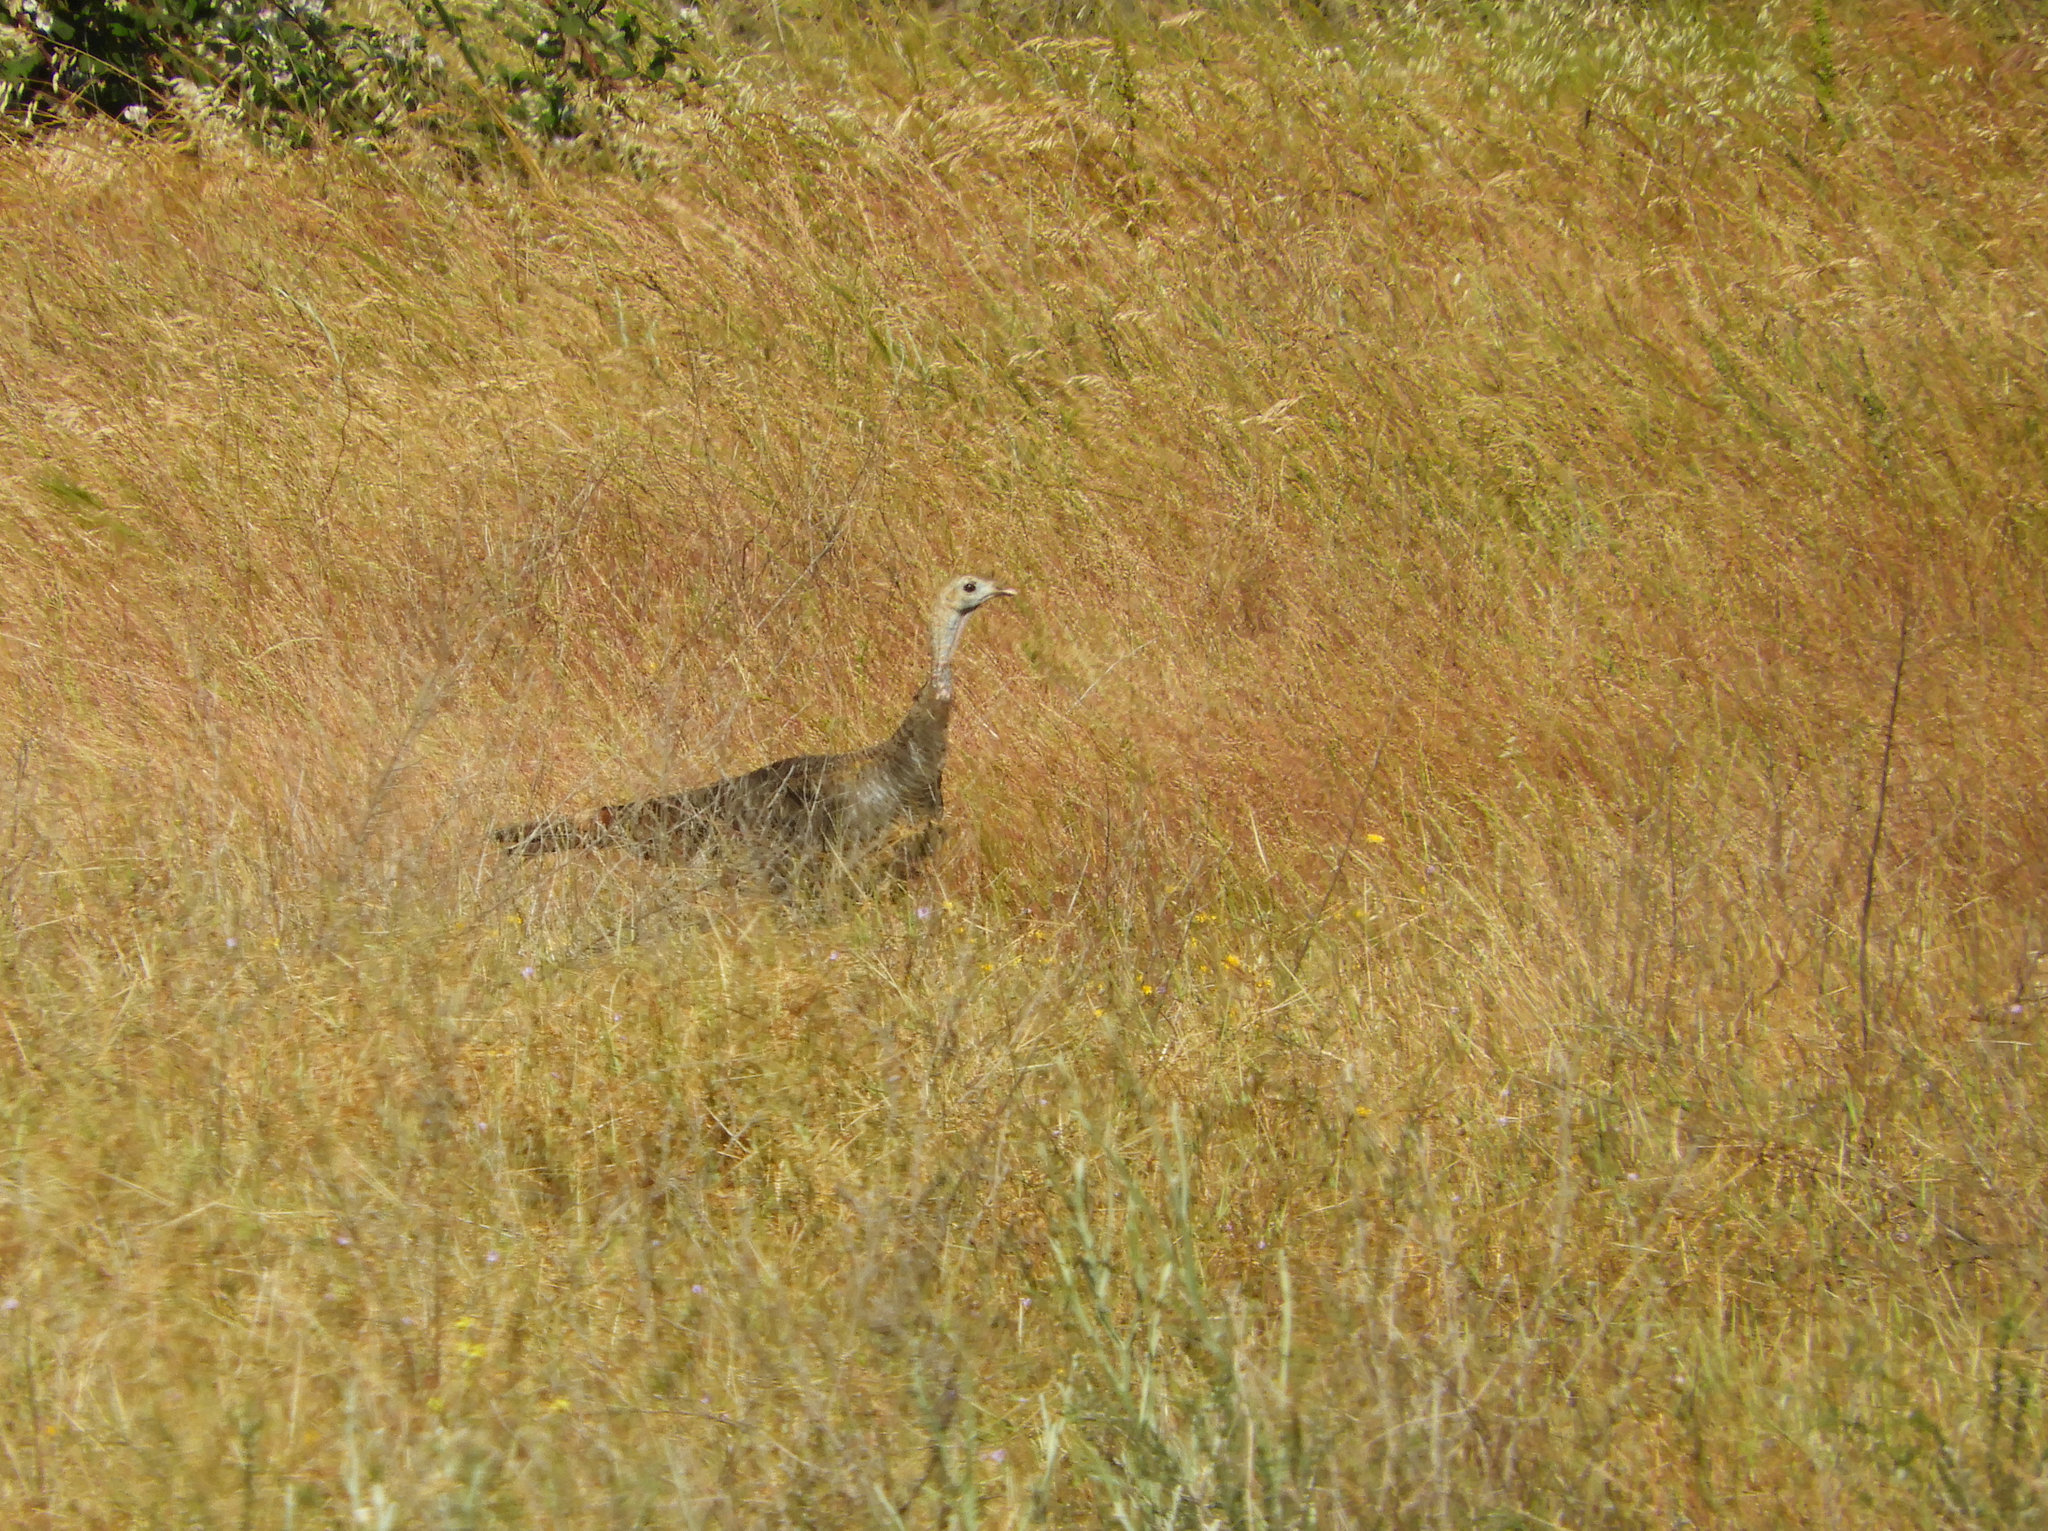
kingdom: Animalia
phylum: Chordata
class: Aves
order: Galliformes
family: Phasianidae
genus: Meleagris
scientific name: Meleagris gallopavo
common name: Wild turkey
